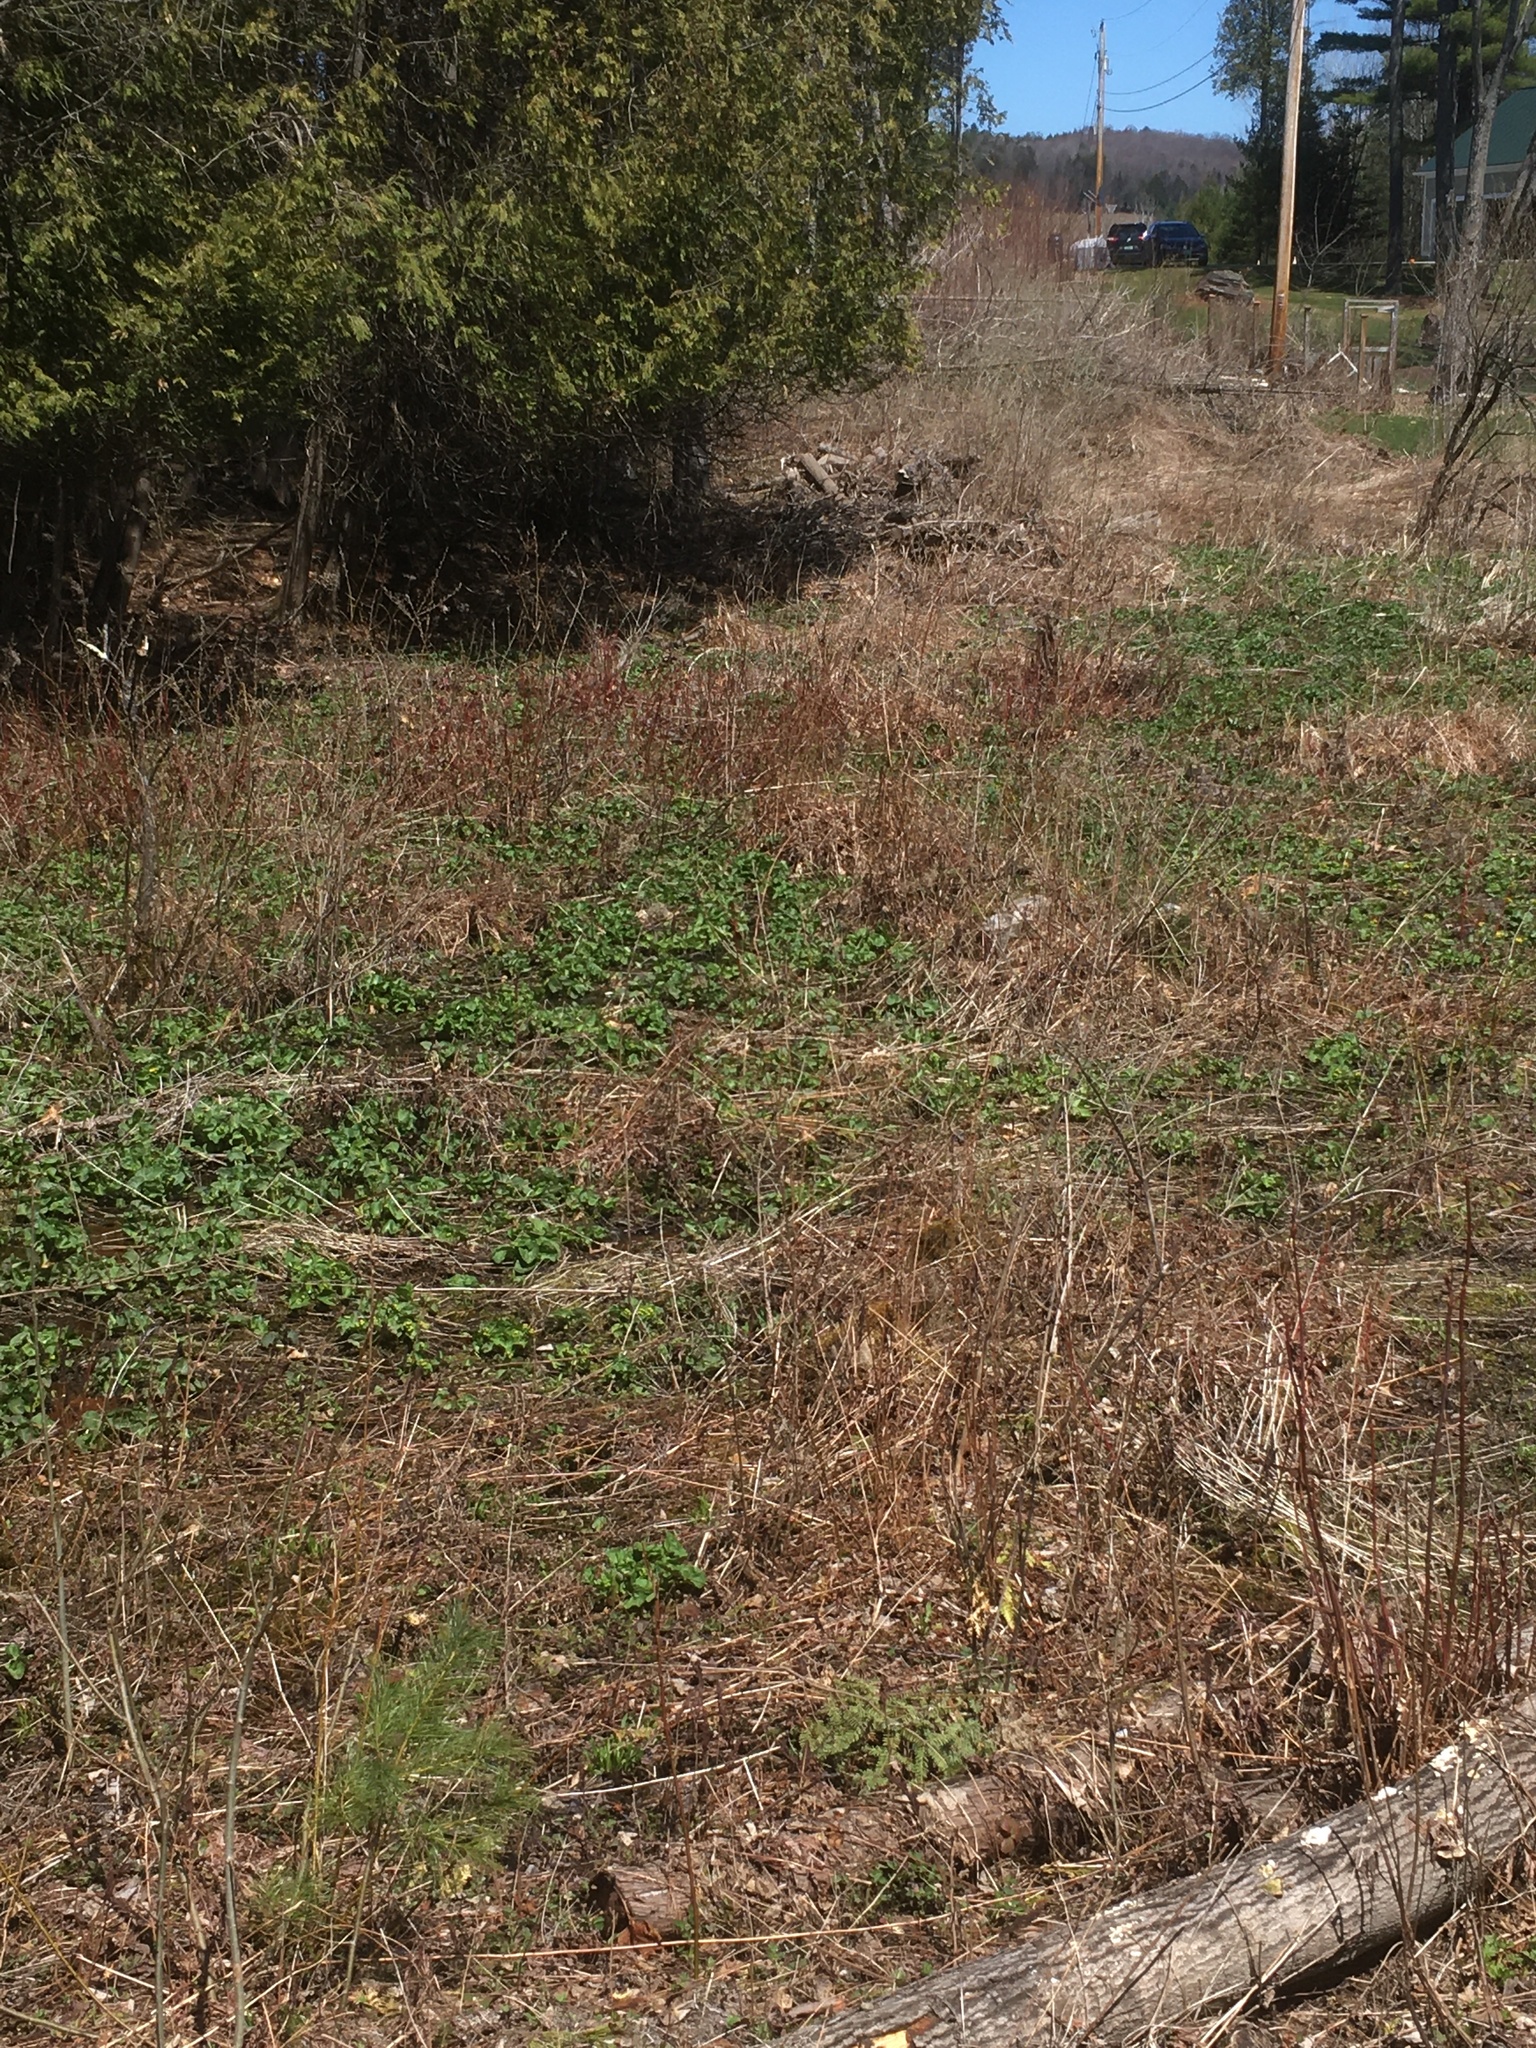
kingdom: Plantae
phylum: Tracheophyta
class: Magnoliopsida
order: Ranunculales
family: Ranunculaceae
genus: Caltha
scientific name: Caltha palustris
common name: Marsh marigold
